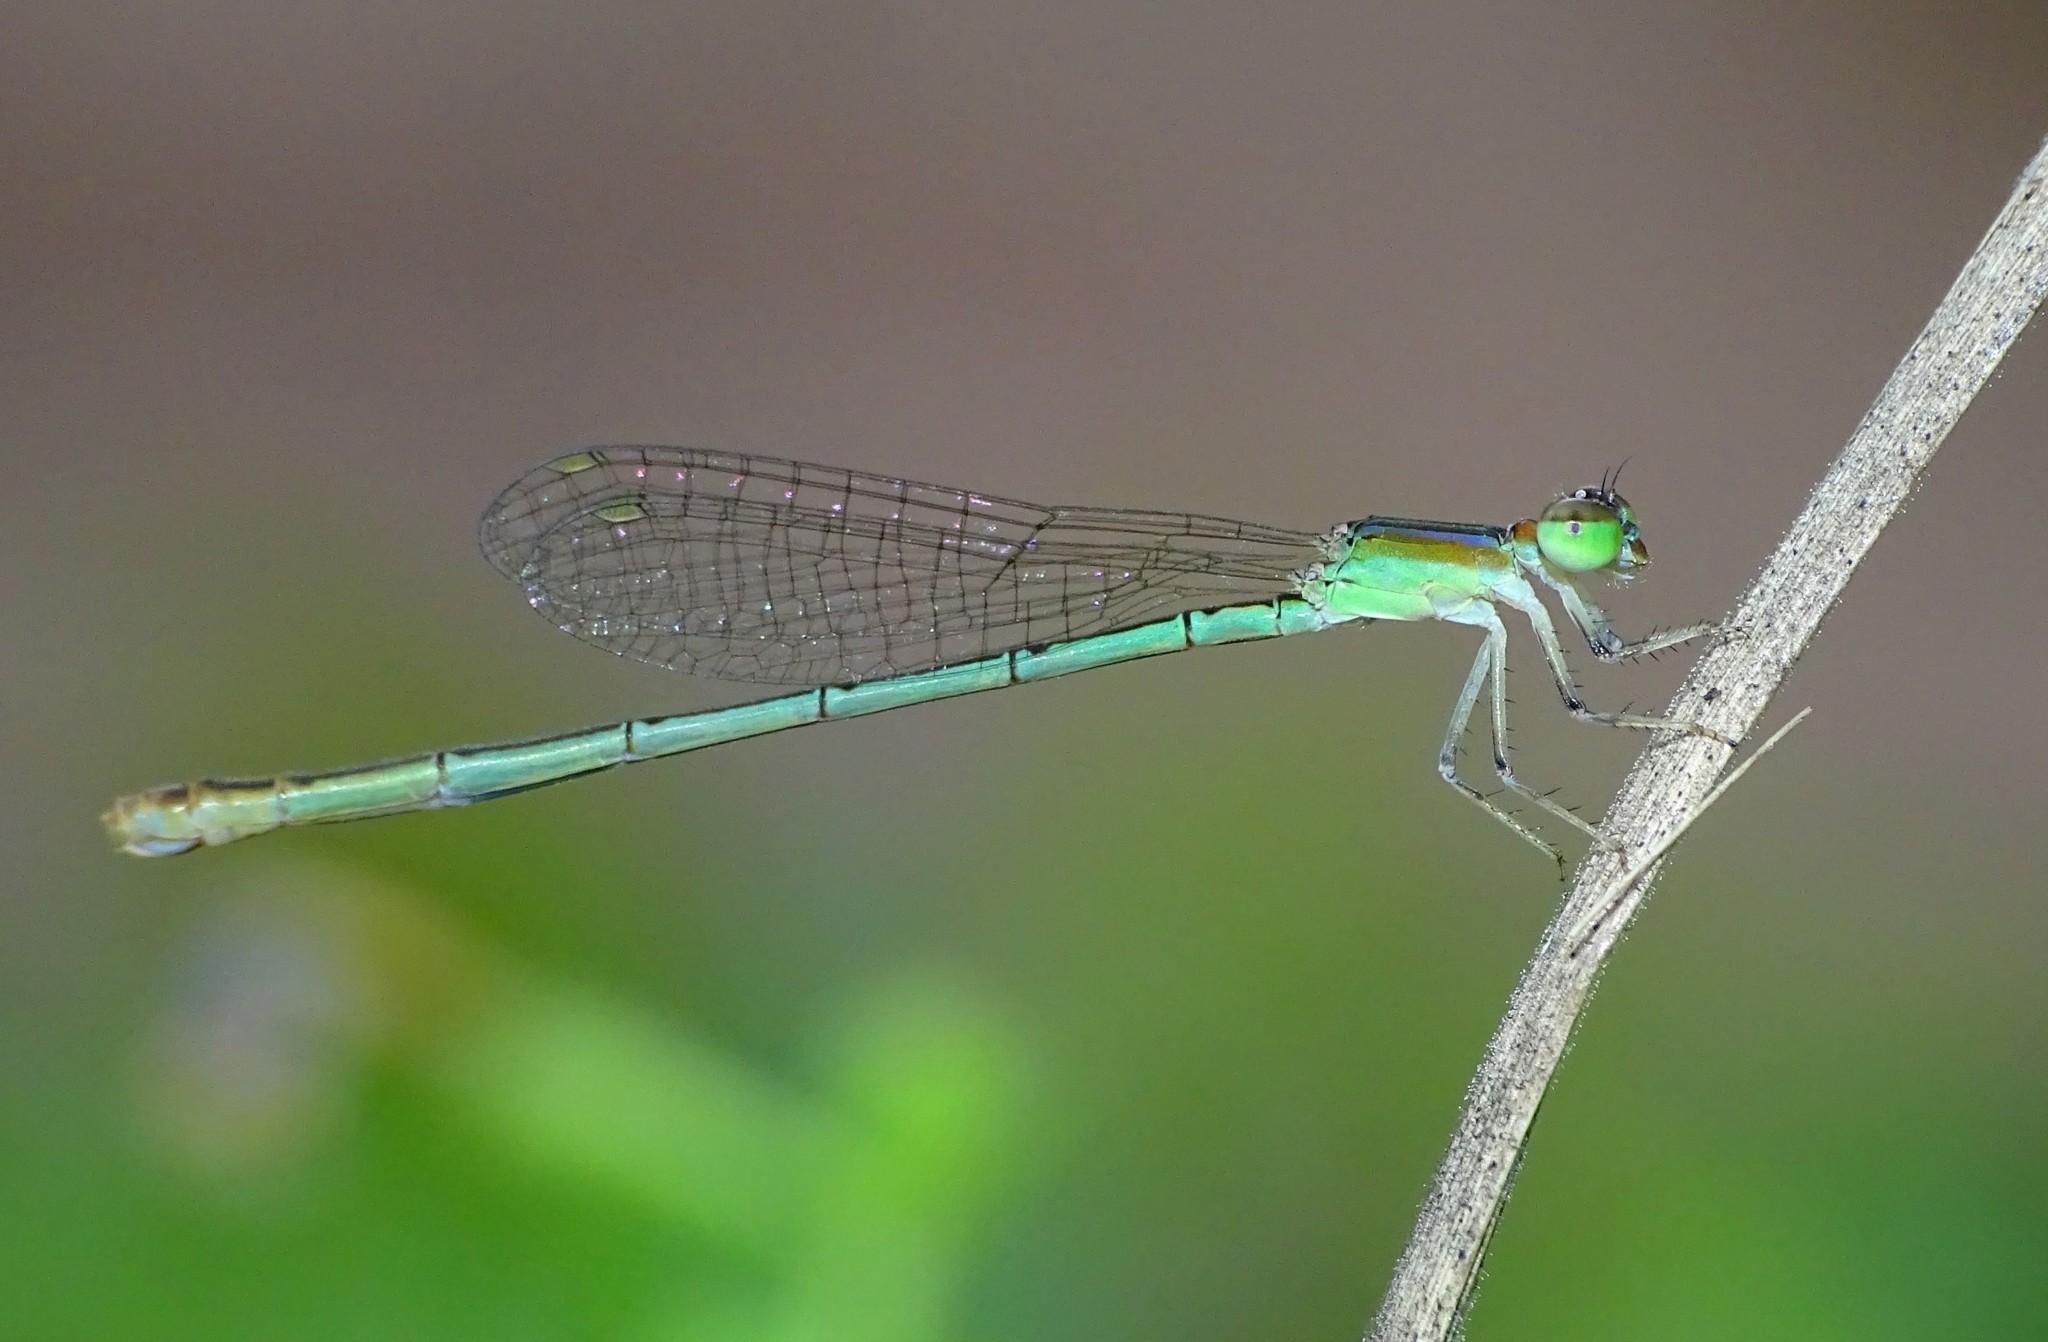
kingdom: Animalia
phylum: Arthropoda
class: Insecta
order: Odonata
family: Coenagrionidae
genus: Agriocnemis
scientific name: Agriocnemis pygmaea
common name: Pygmy wisp
